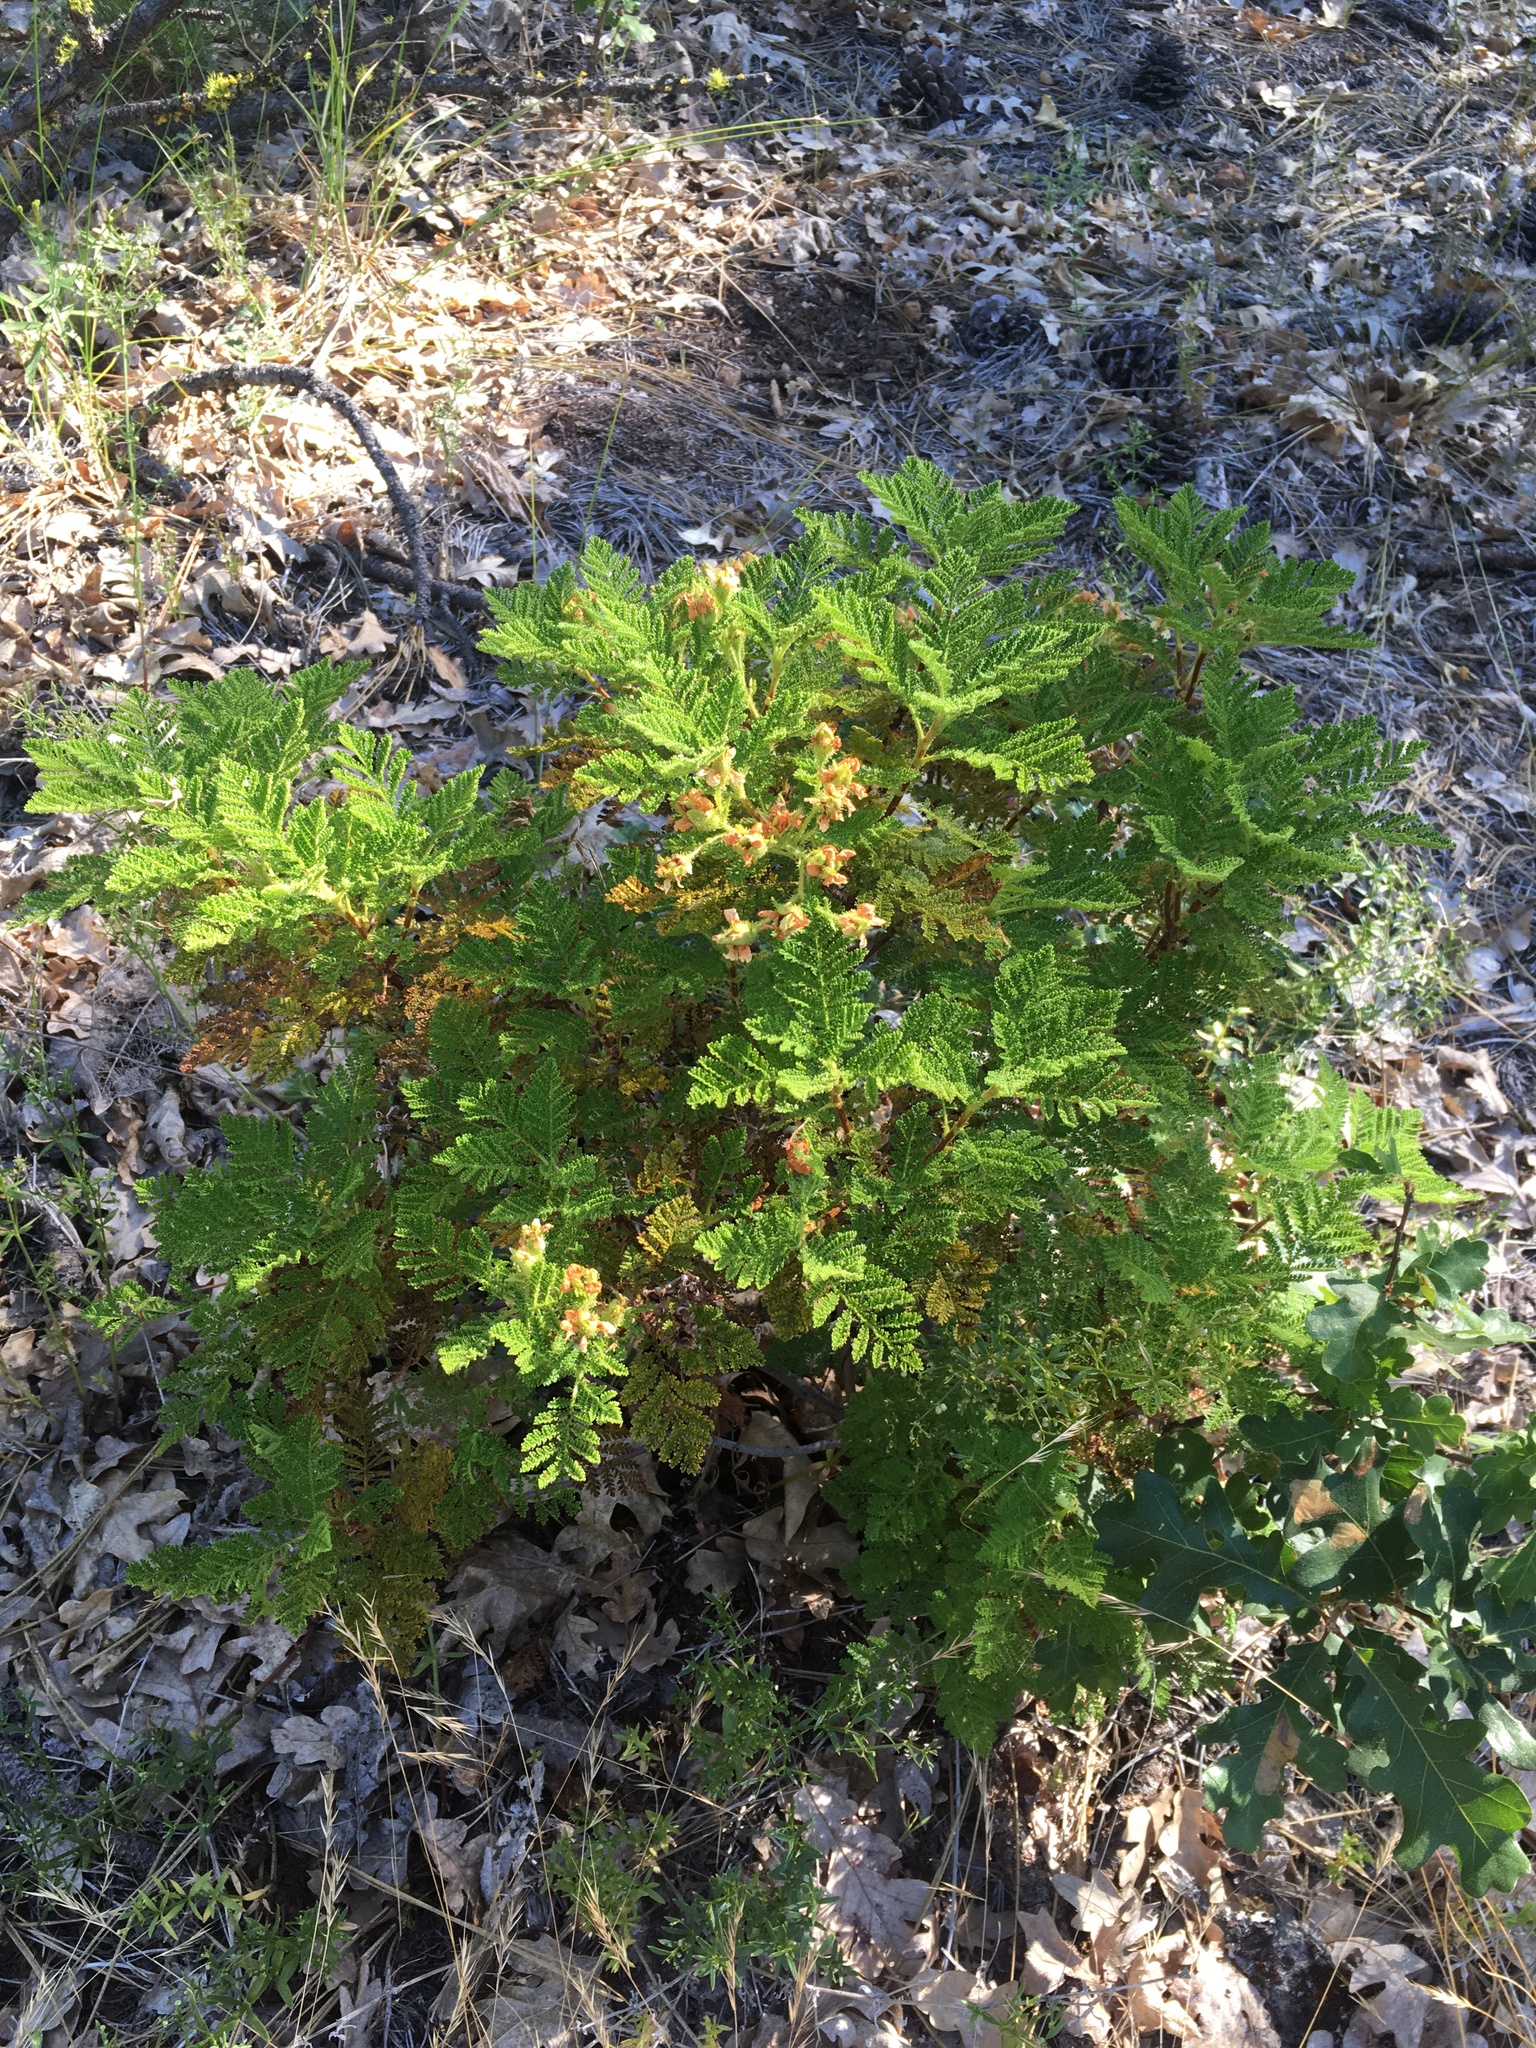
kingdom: Plantae
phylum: Tracheophyta
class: Magnoliopsida
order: Rosales
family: Rosaceae
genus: Chamaebatia
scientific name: Chamaebatia foliolosa
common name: Mountain misery
